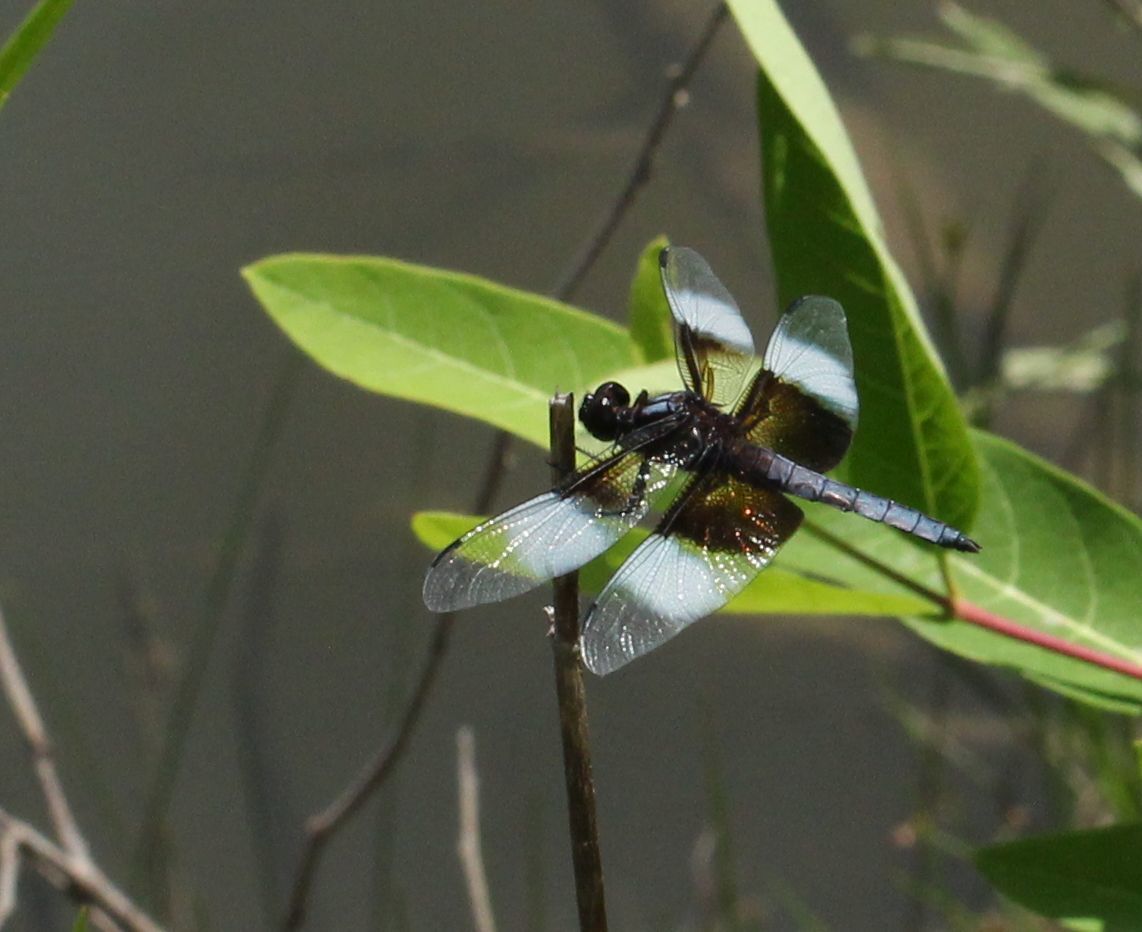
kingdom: Animalia
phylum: Arthropoda
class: Insecta
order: Odonata
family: Libellulidae
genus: Libellula
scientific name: Libellula luctuosa
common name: Widow skimmer
